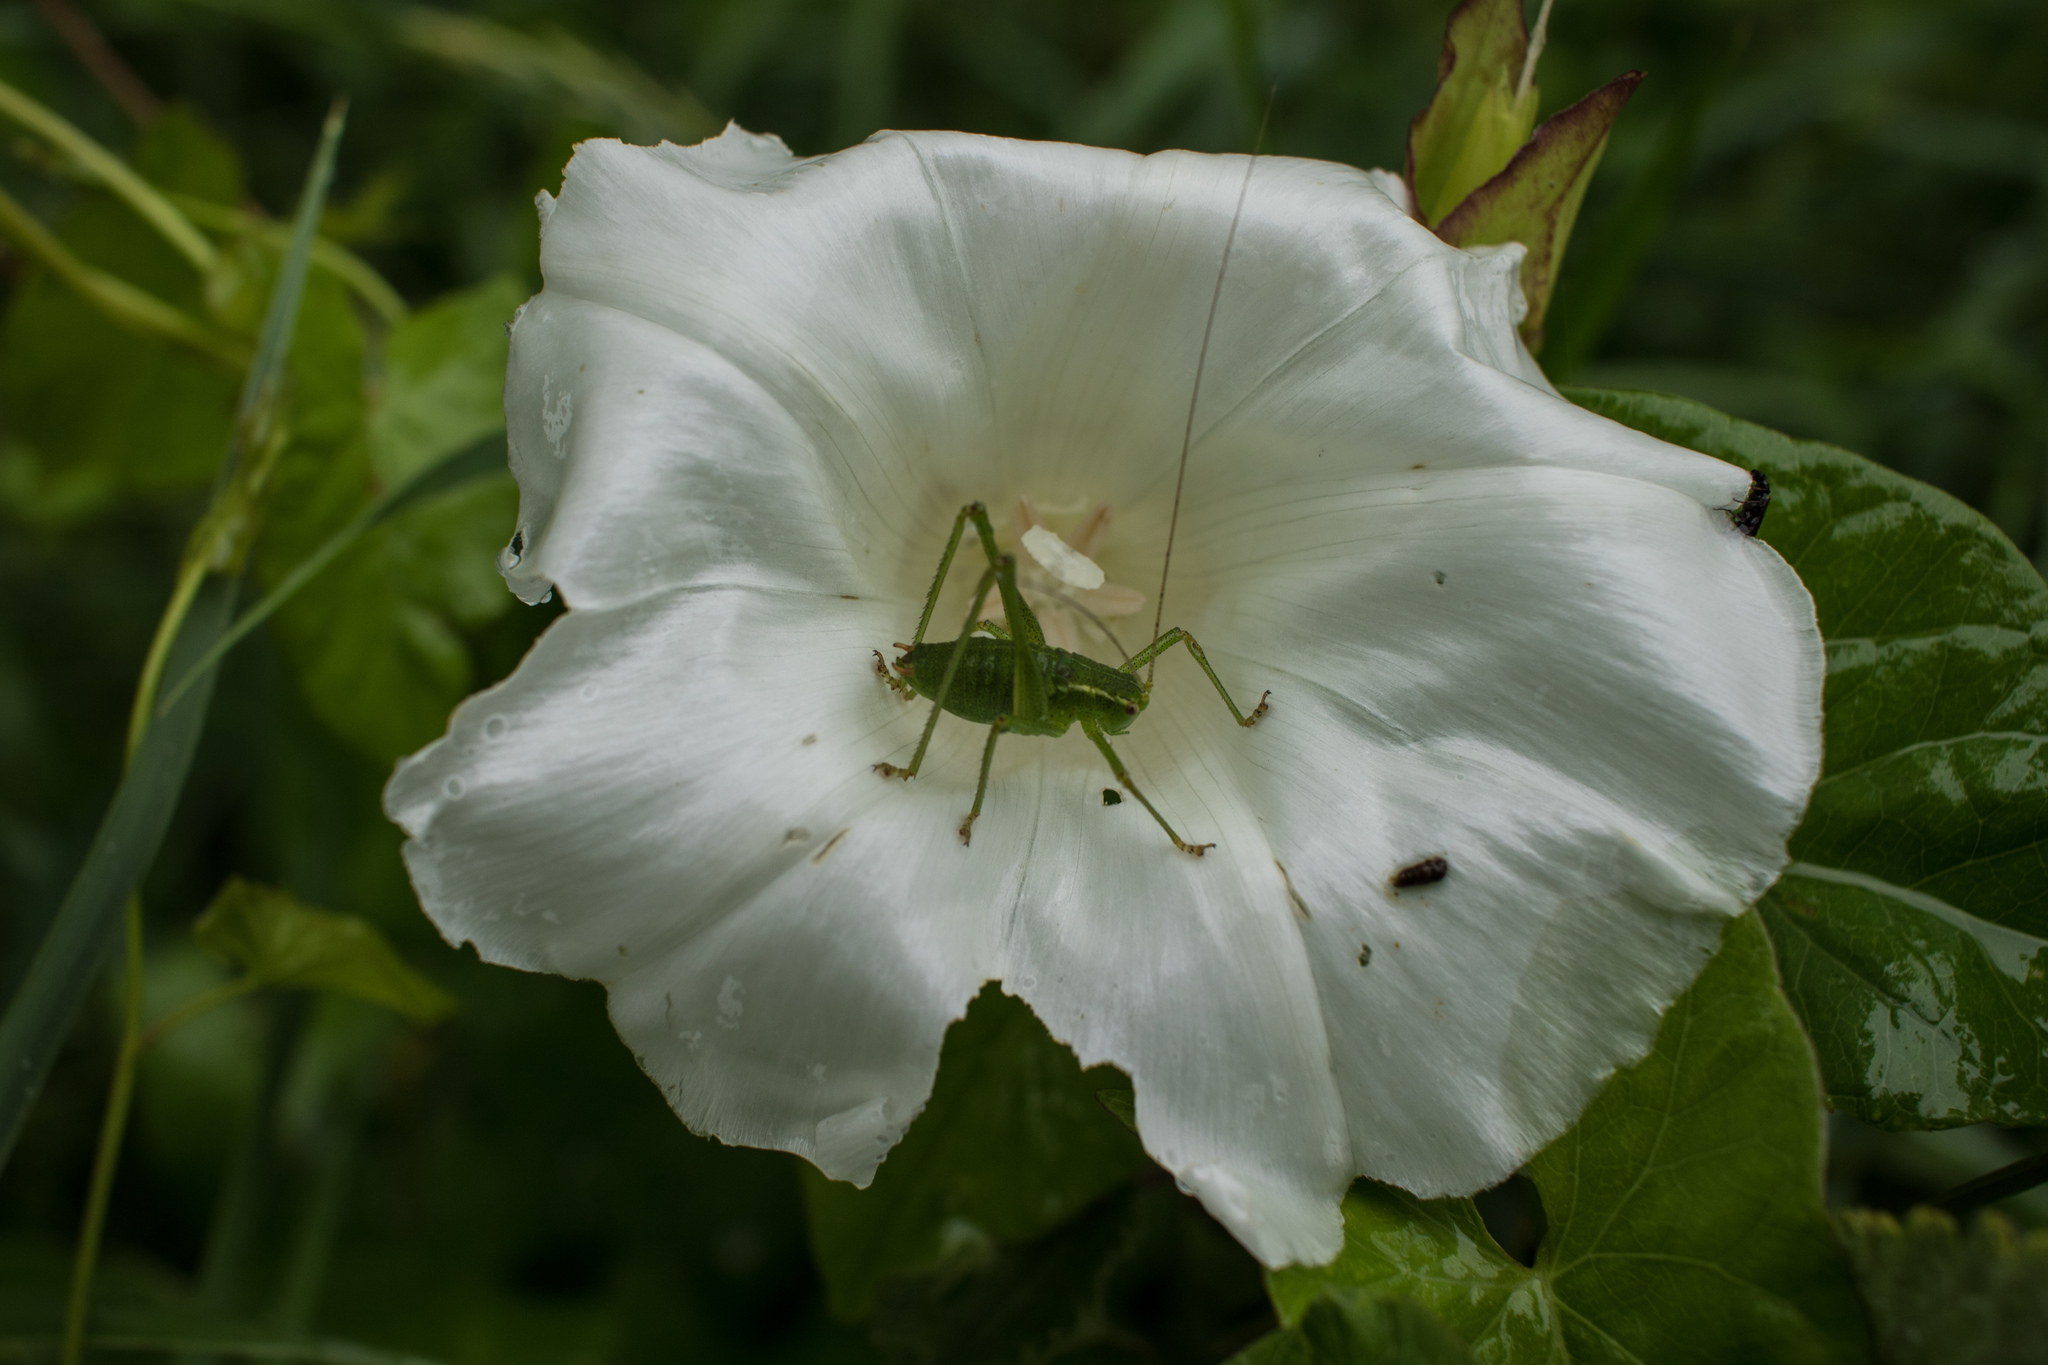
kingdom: Animalia
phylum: Arthropoda
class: Insecta
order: Orthoptera
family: Tettigoniidae
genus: Leptophyes
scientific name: Leptophyes punctatissima
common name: Speckled bush-cricket
